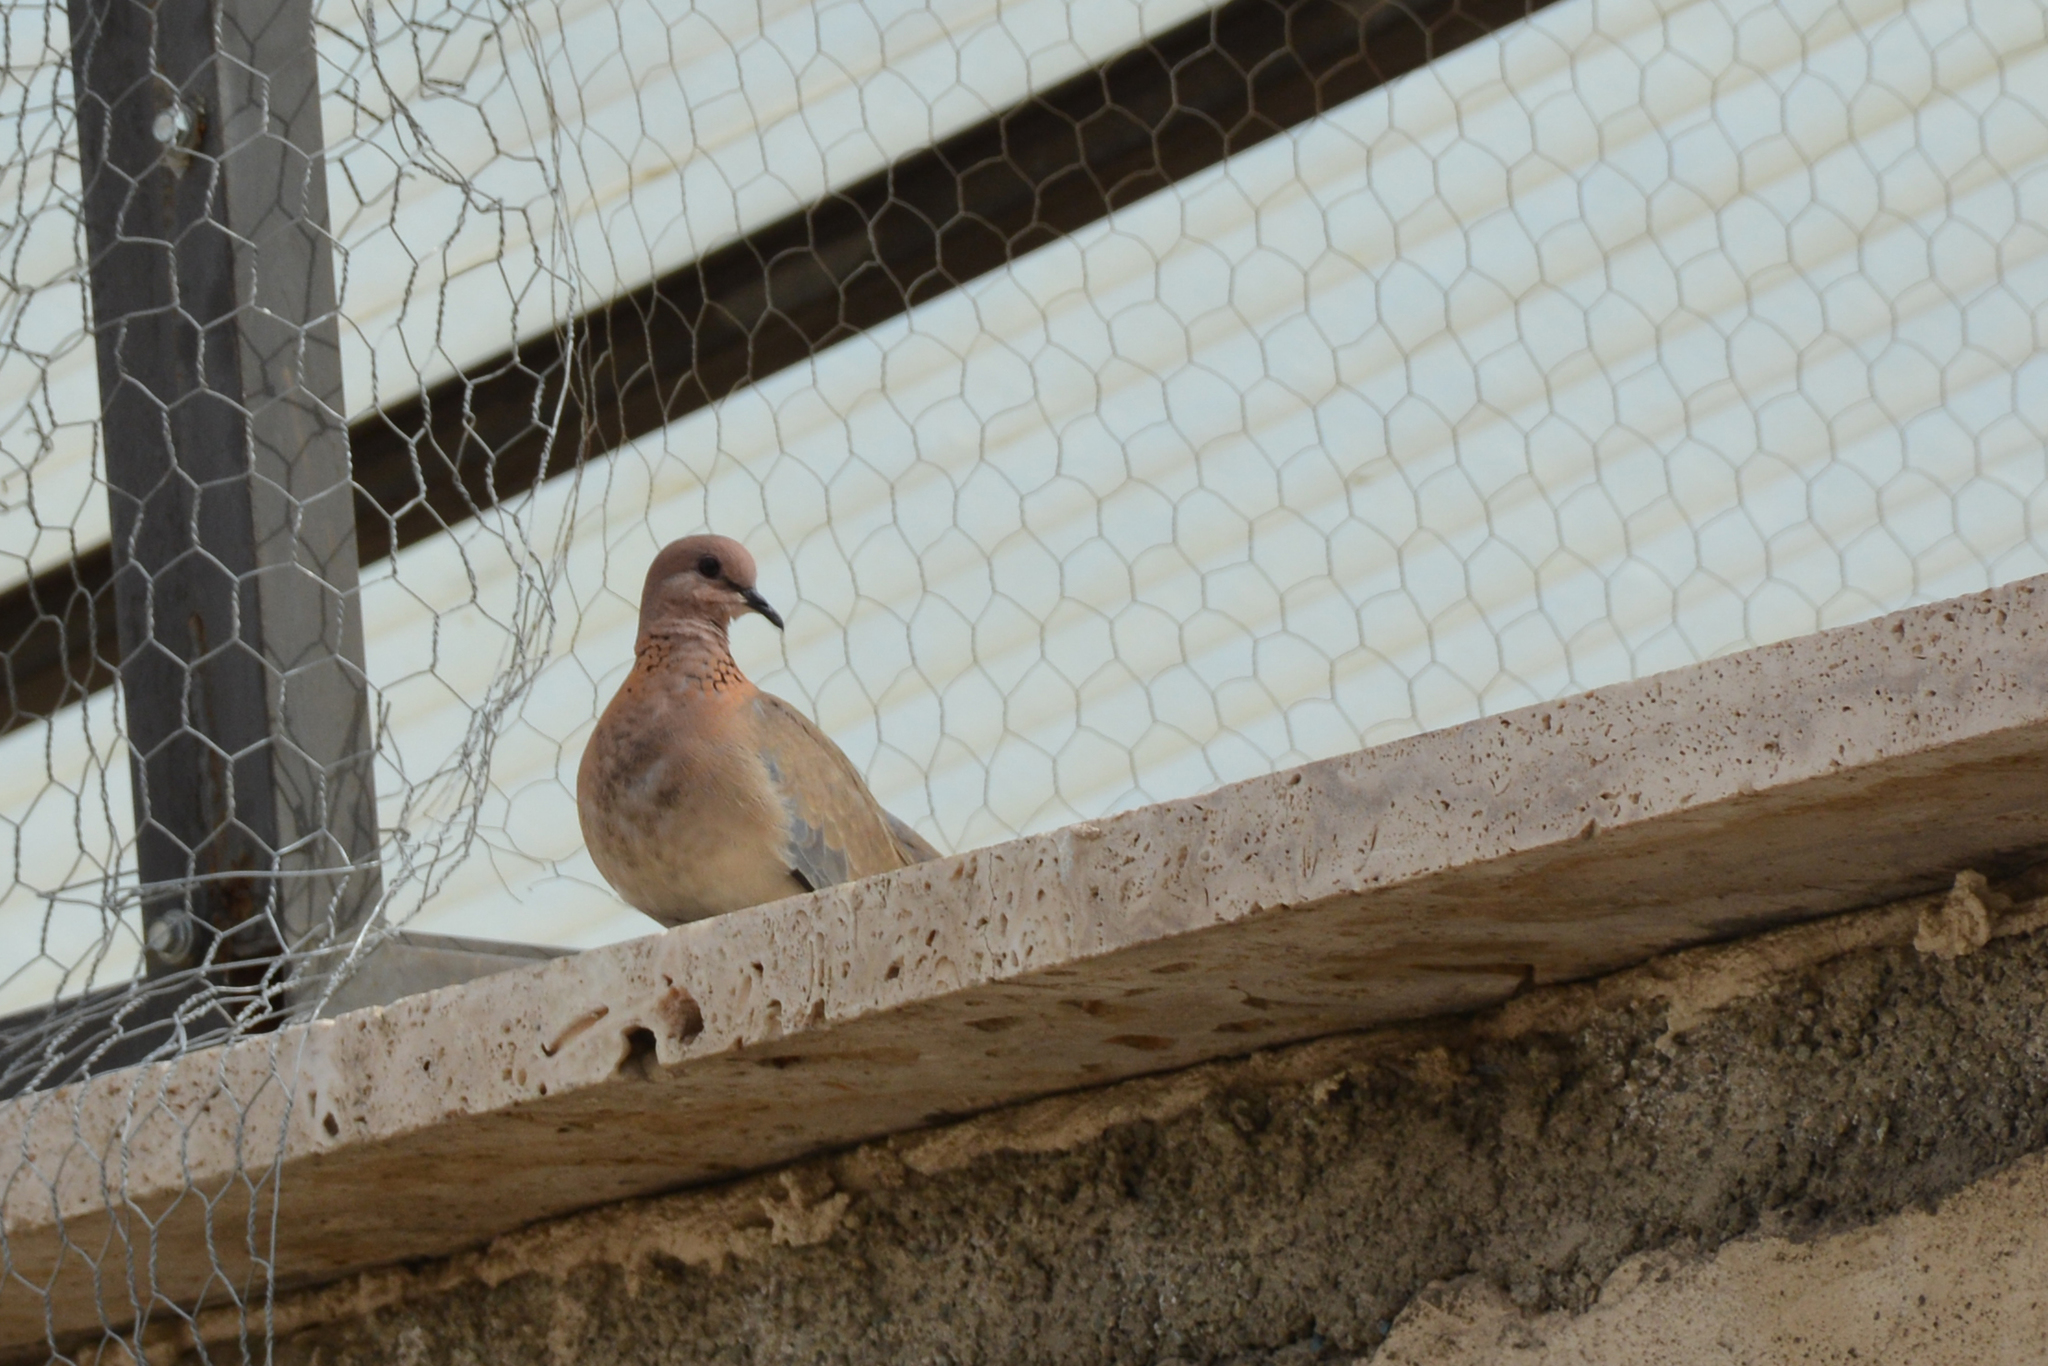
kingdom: Animalia
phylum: Chordata
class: Aves
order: Columbiformes
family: Columbidae
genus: Spilopelia
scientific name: Spilopelia senegalensis
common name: Laughing dove
